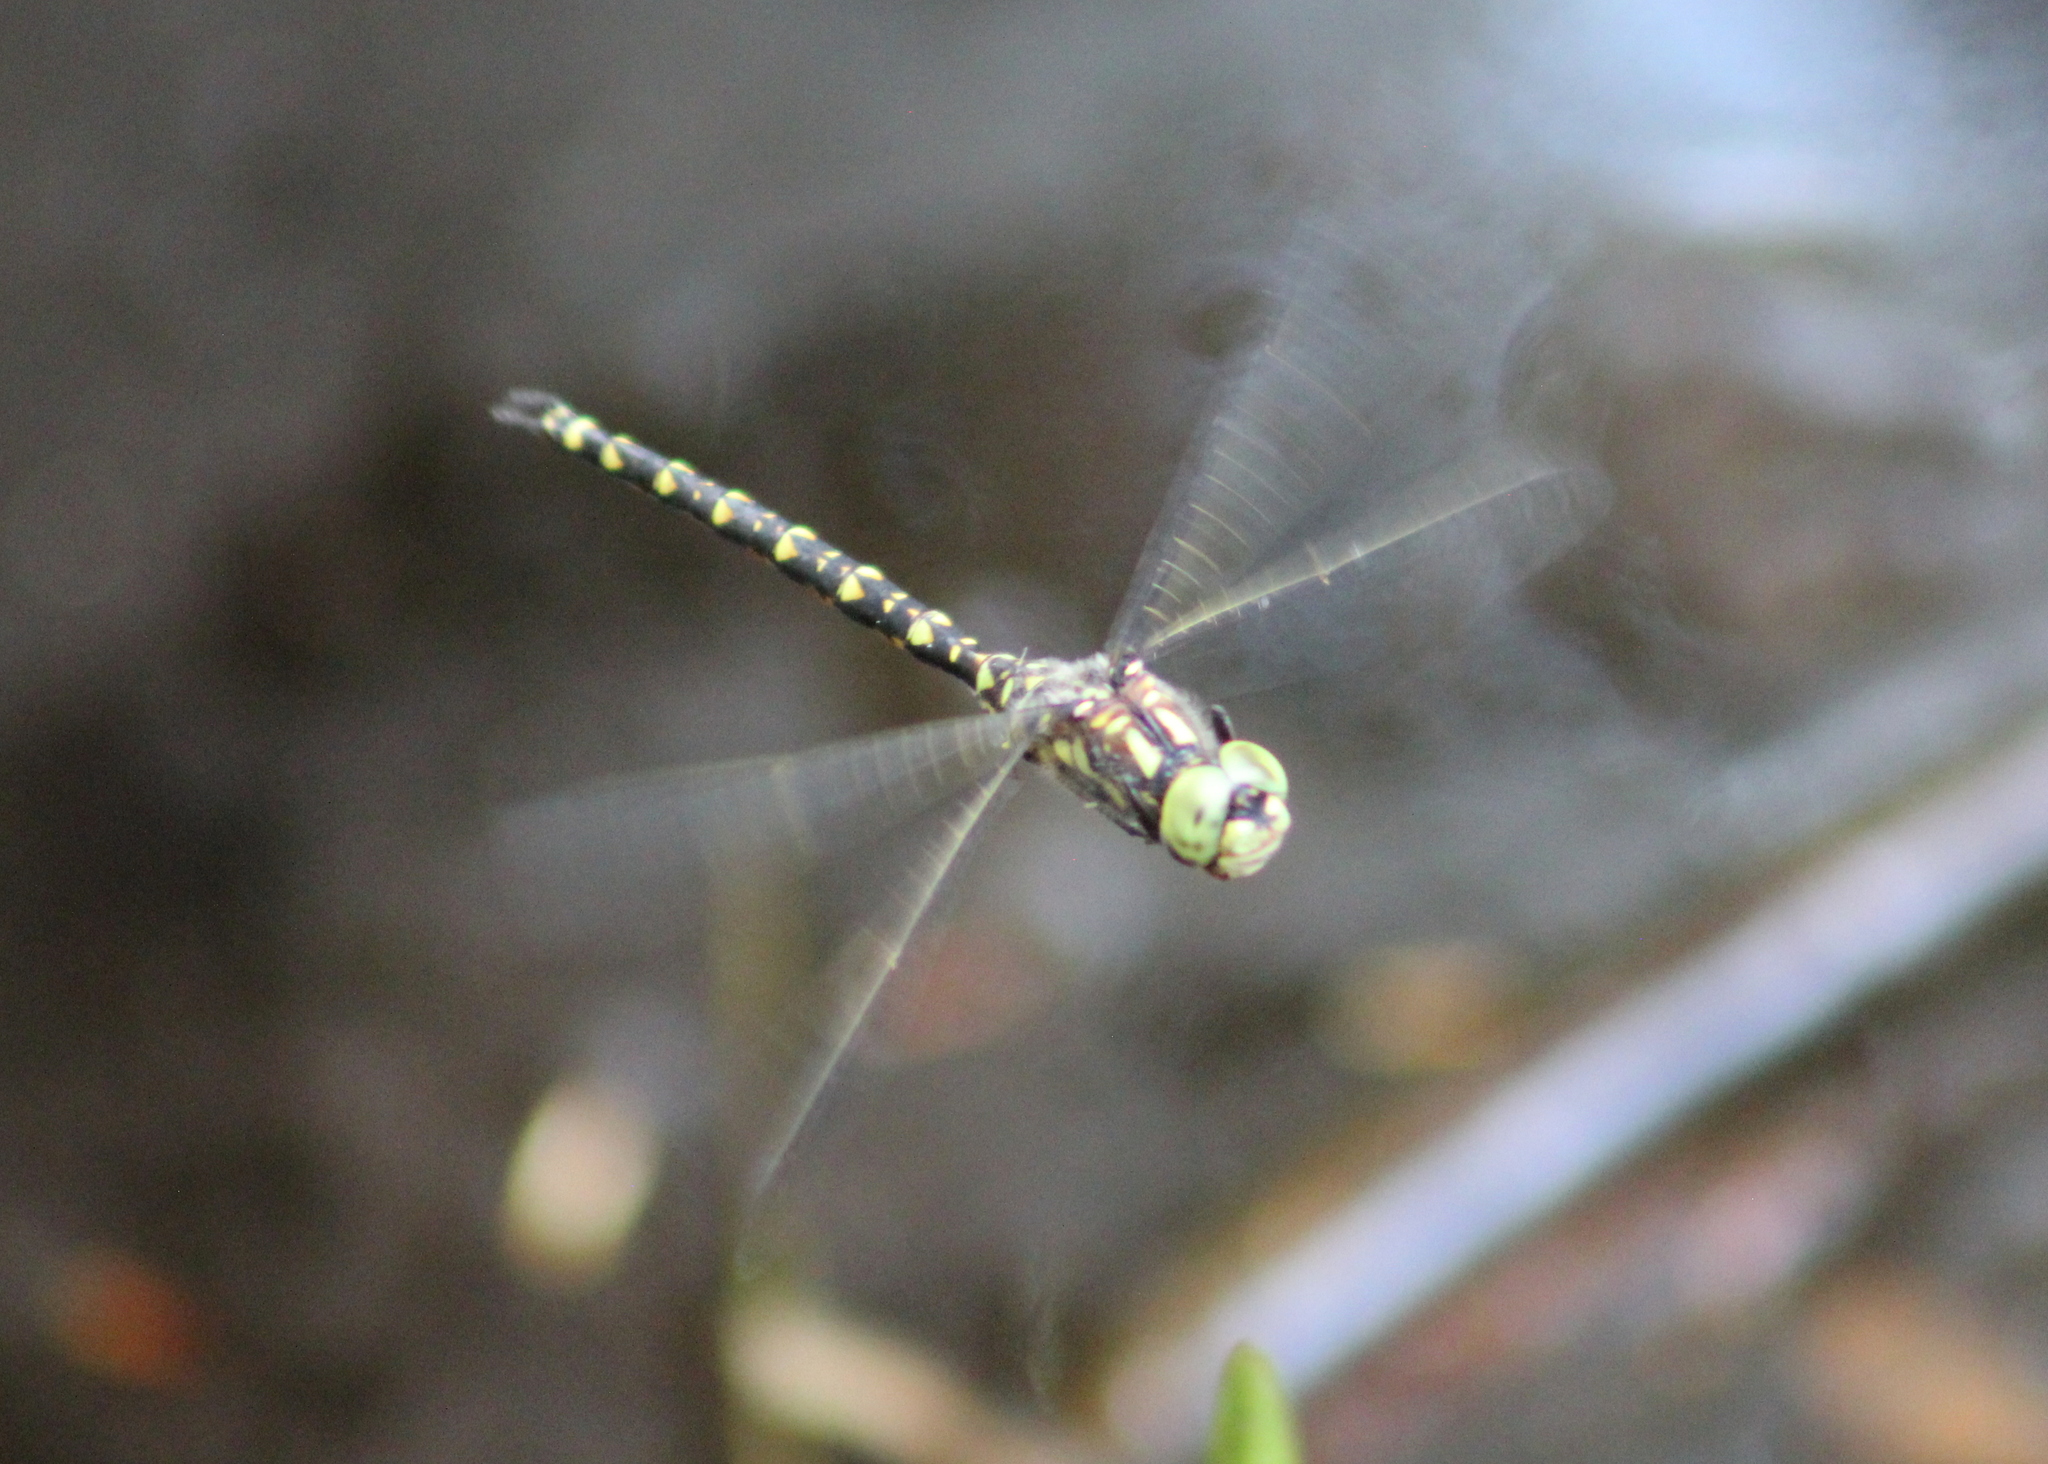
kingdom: Animalia
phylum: Arthropoda
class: Insecta
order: Odonata
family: Aeshnidae
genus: Gomphaeschna
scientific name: Gomphaeschna furcillata
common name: Harlequin darner
